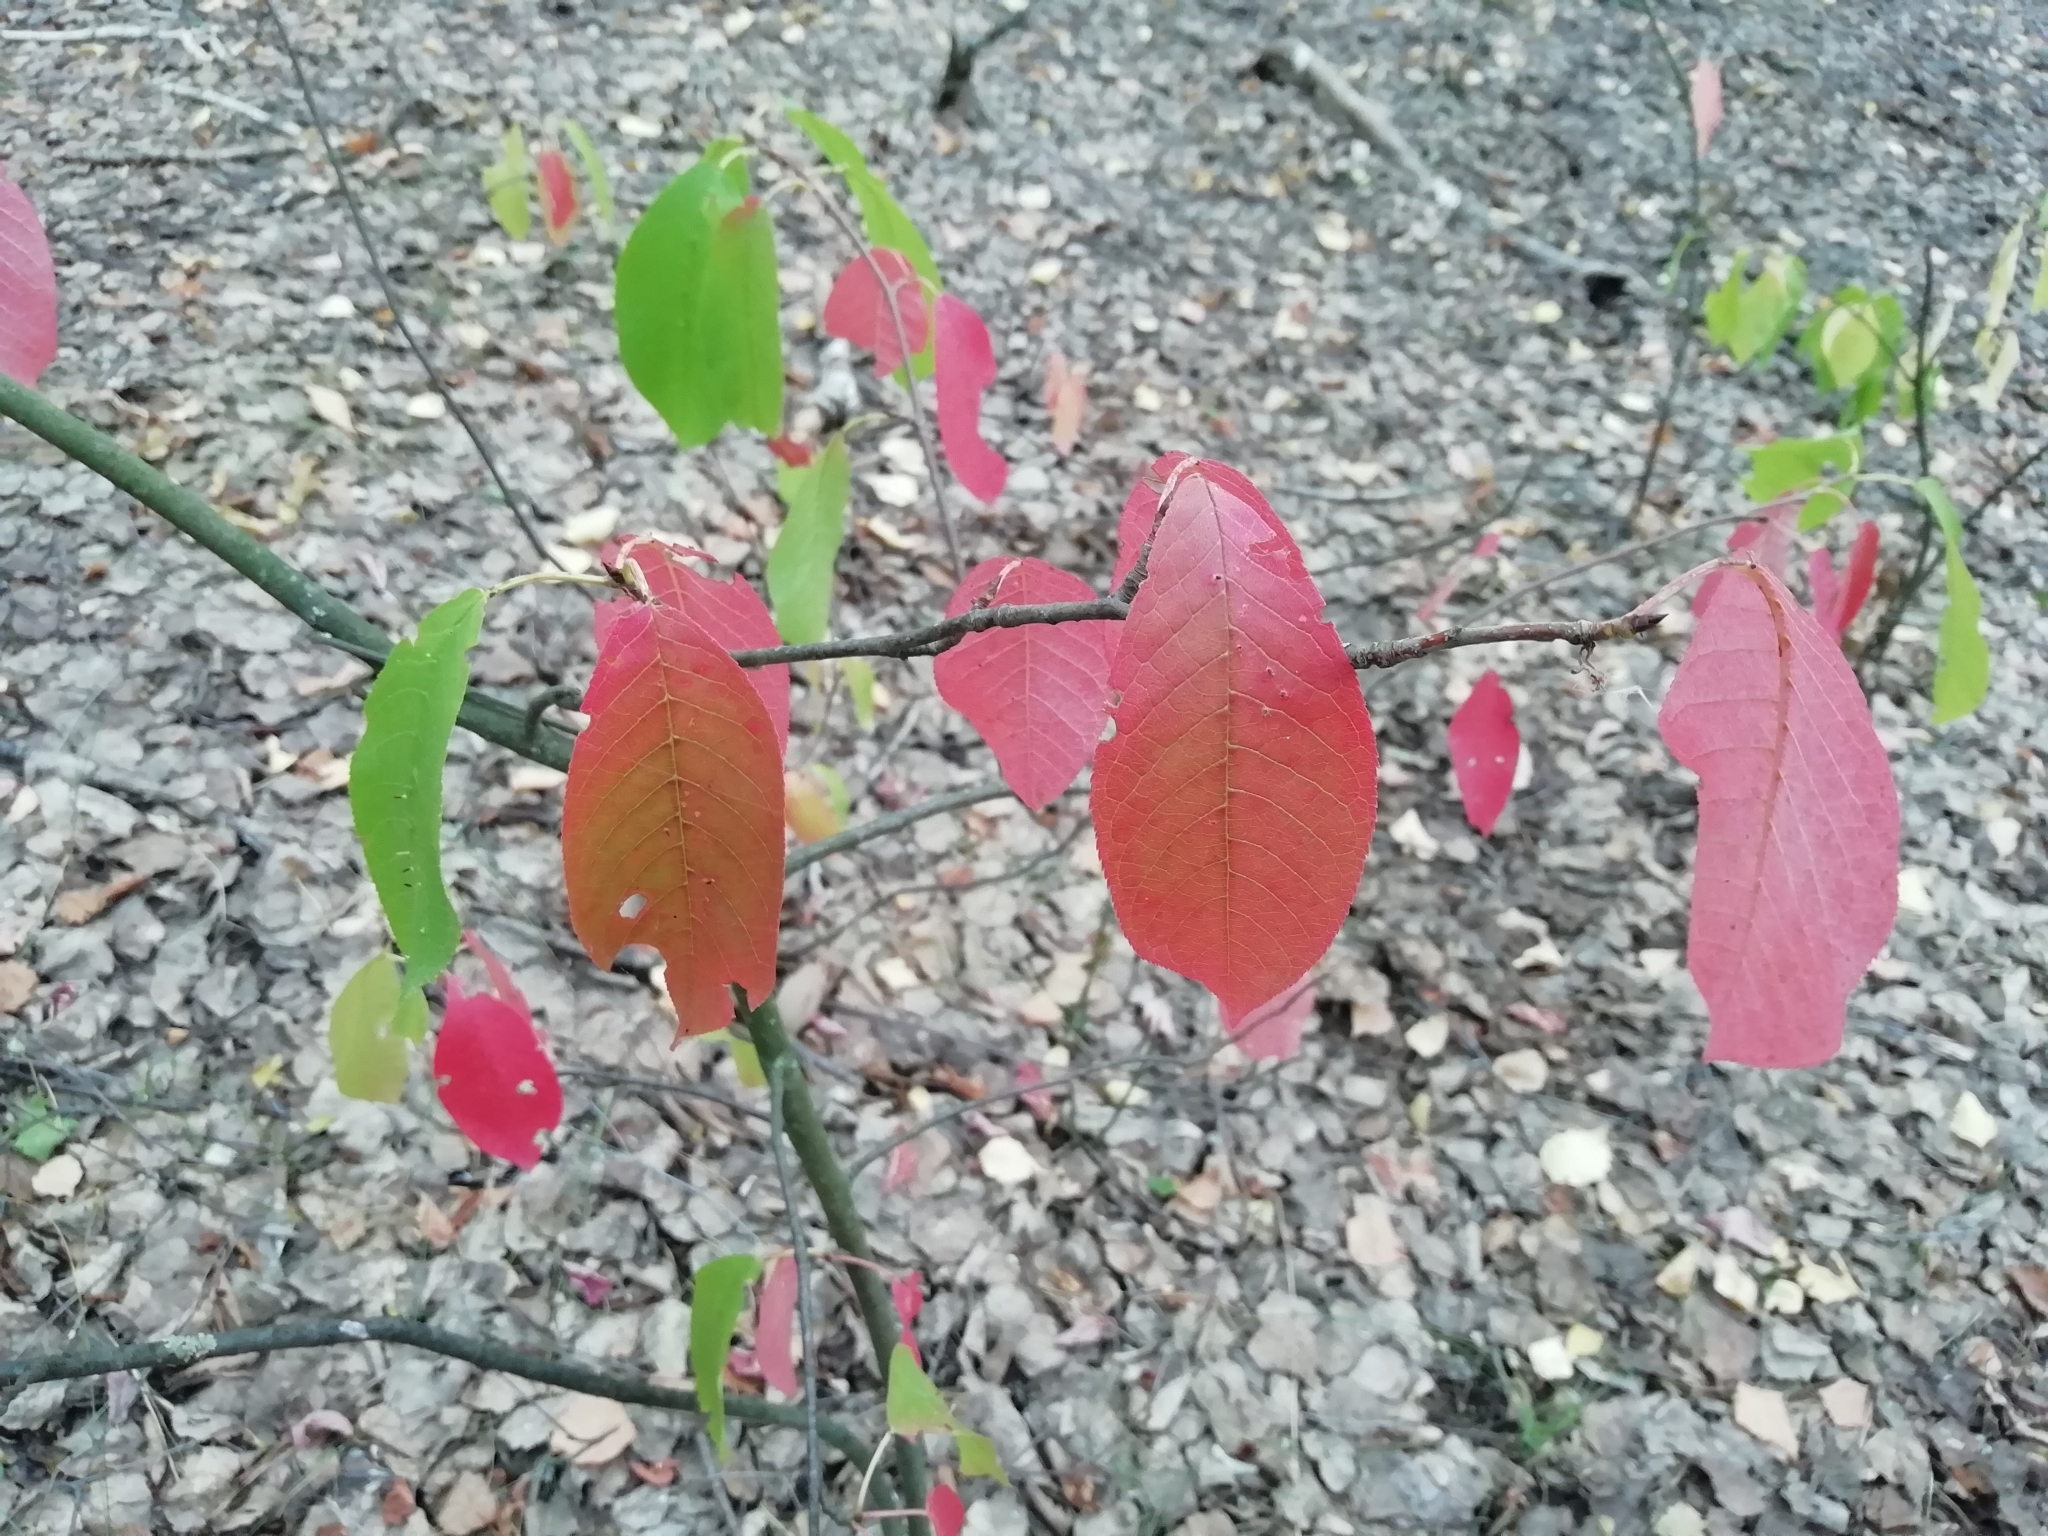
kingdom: Plantae
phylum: Tracheophyta
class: Magnoliopsida
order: Rosales
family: Rosaceae
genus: Prunus
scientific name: Prunus padus
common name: Bird cherry
